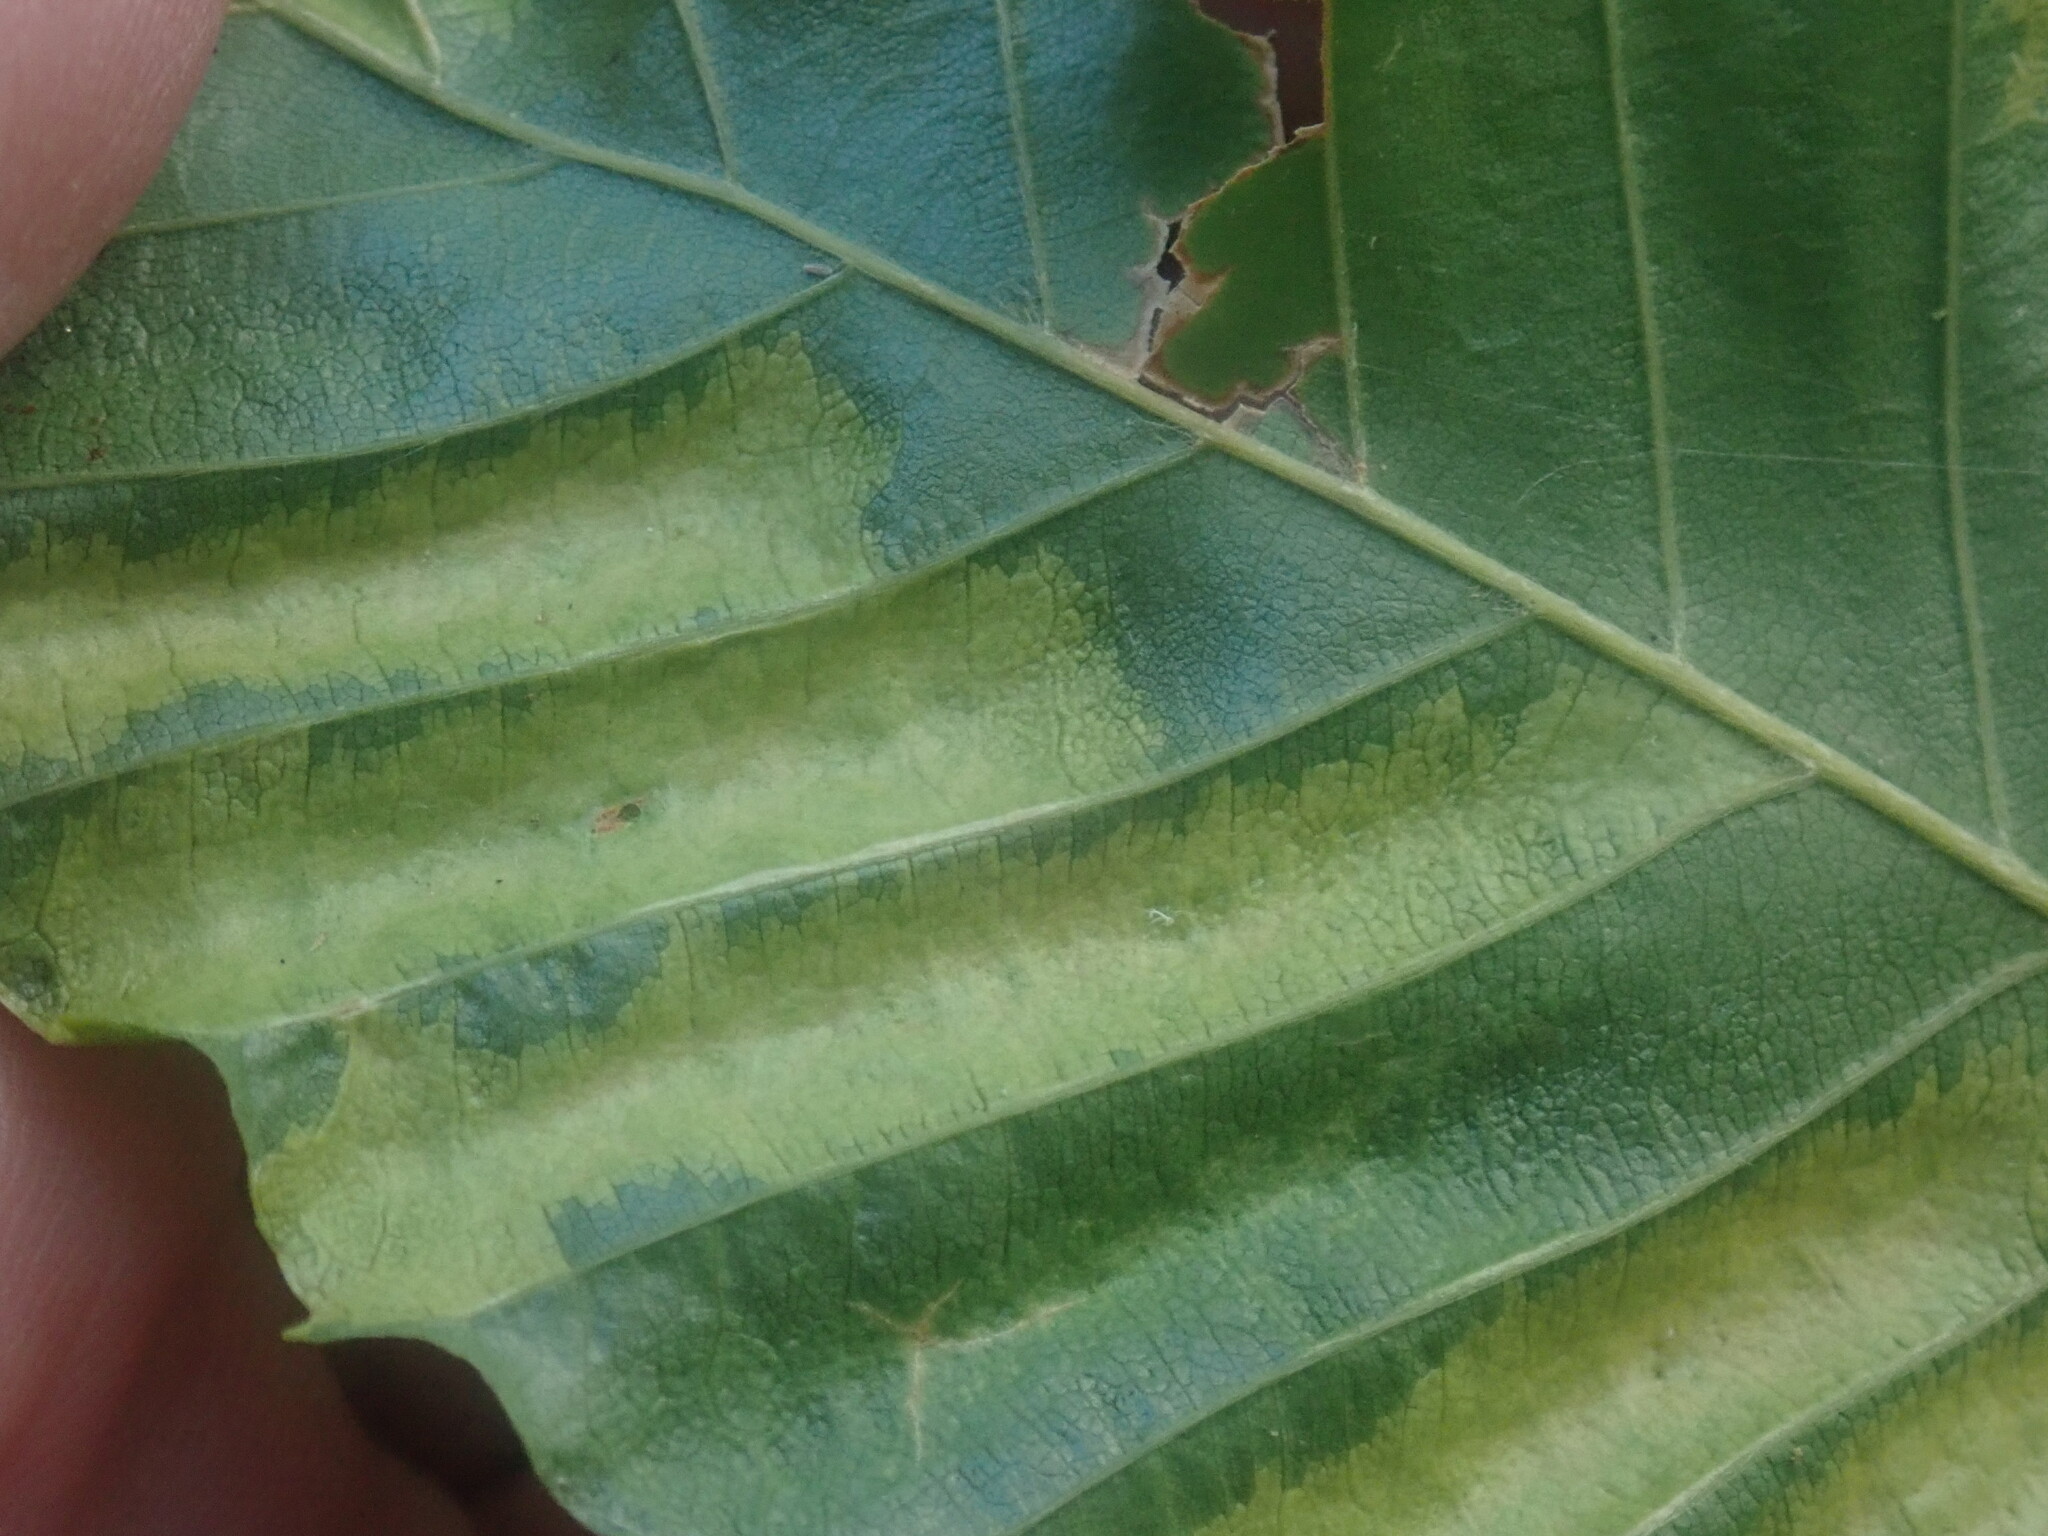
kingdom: Animalia
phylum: Nematoda
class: Chromadorea
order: Rhabditida
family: Anguinidae
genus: Litylenchus
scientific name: Litylenchus crenatae
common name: Beech leaf disease
